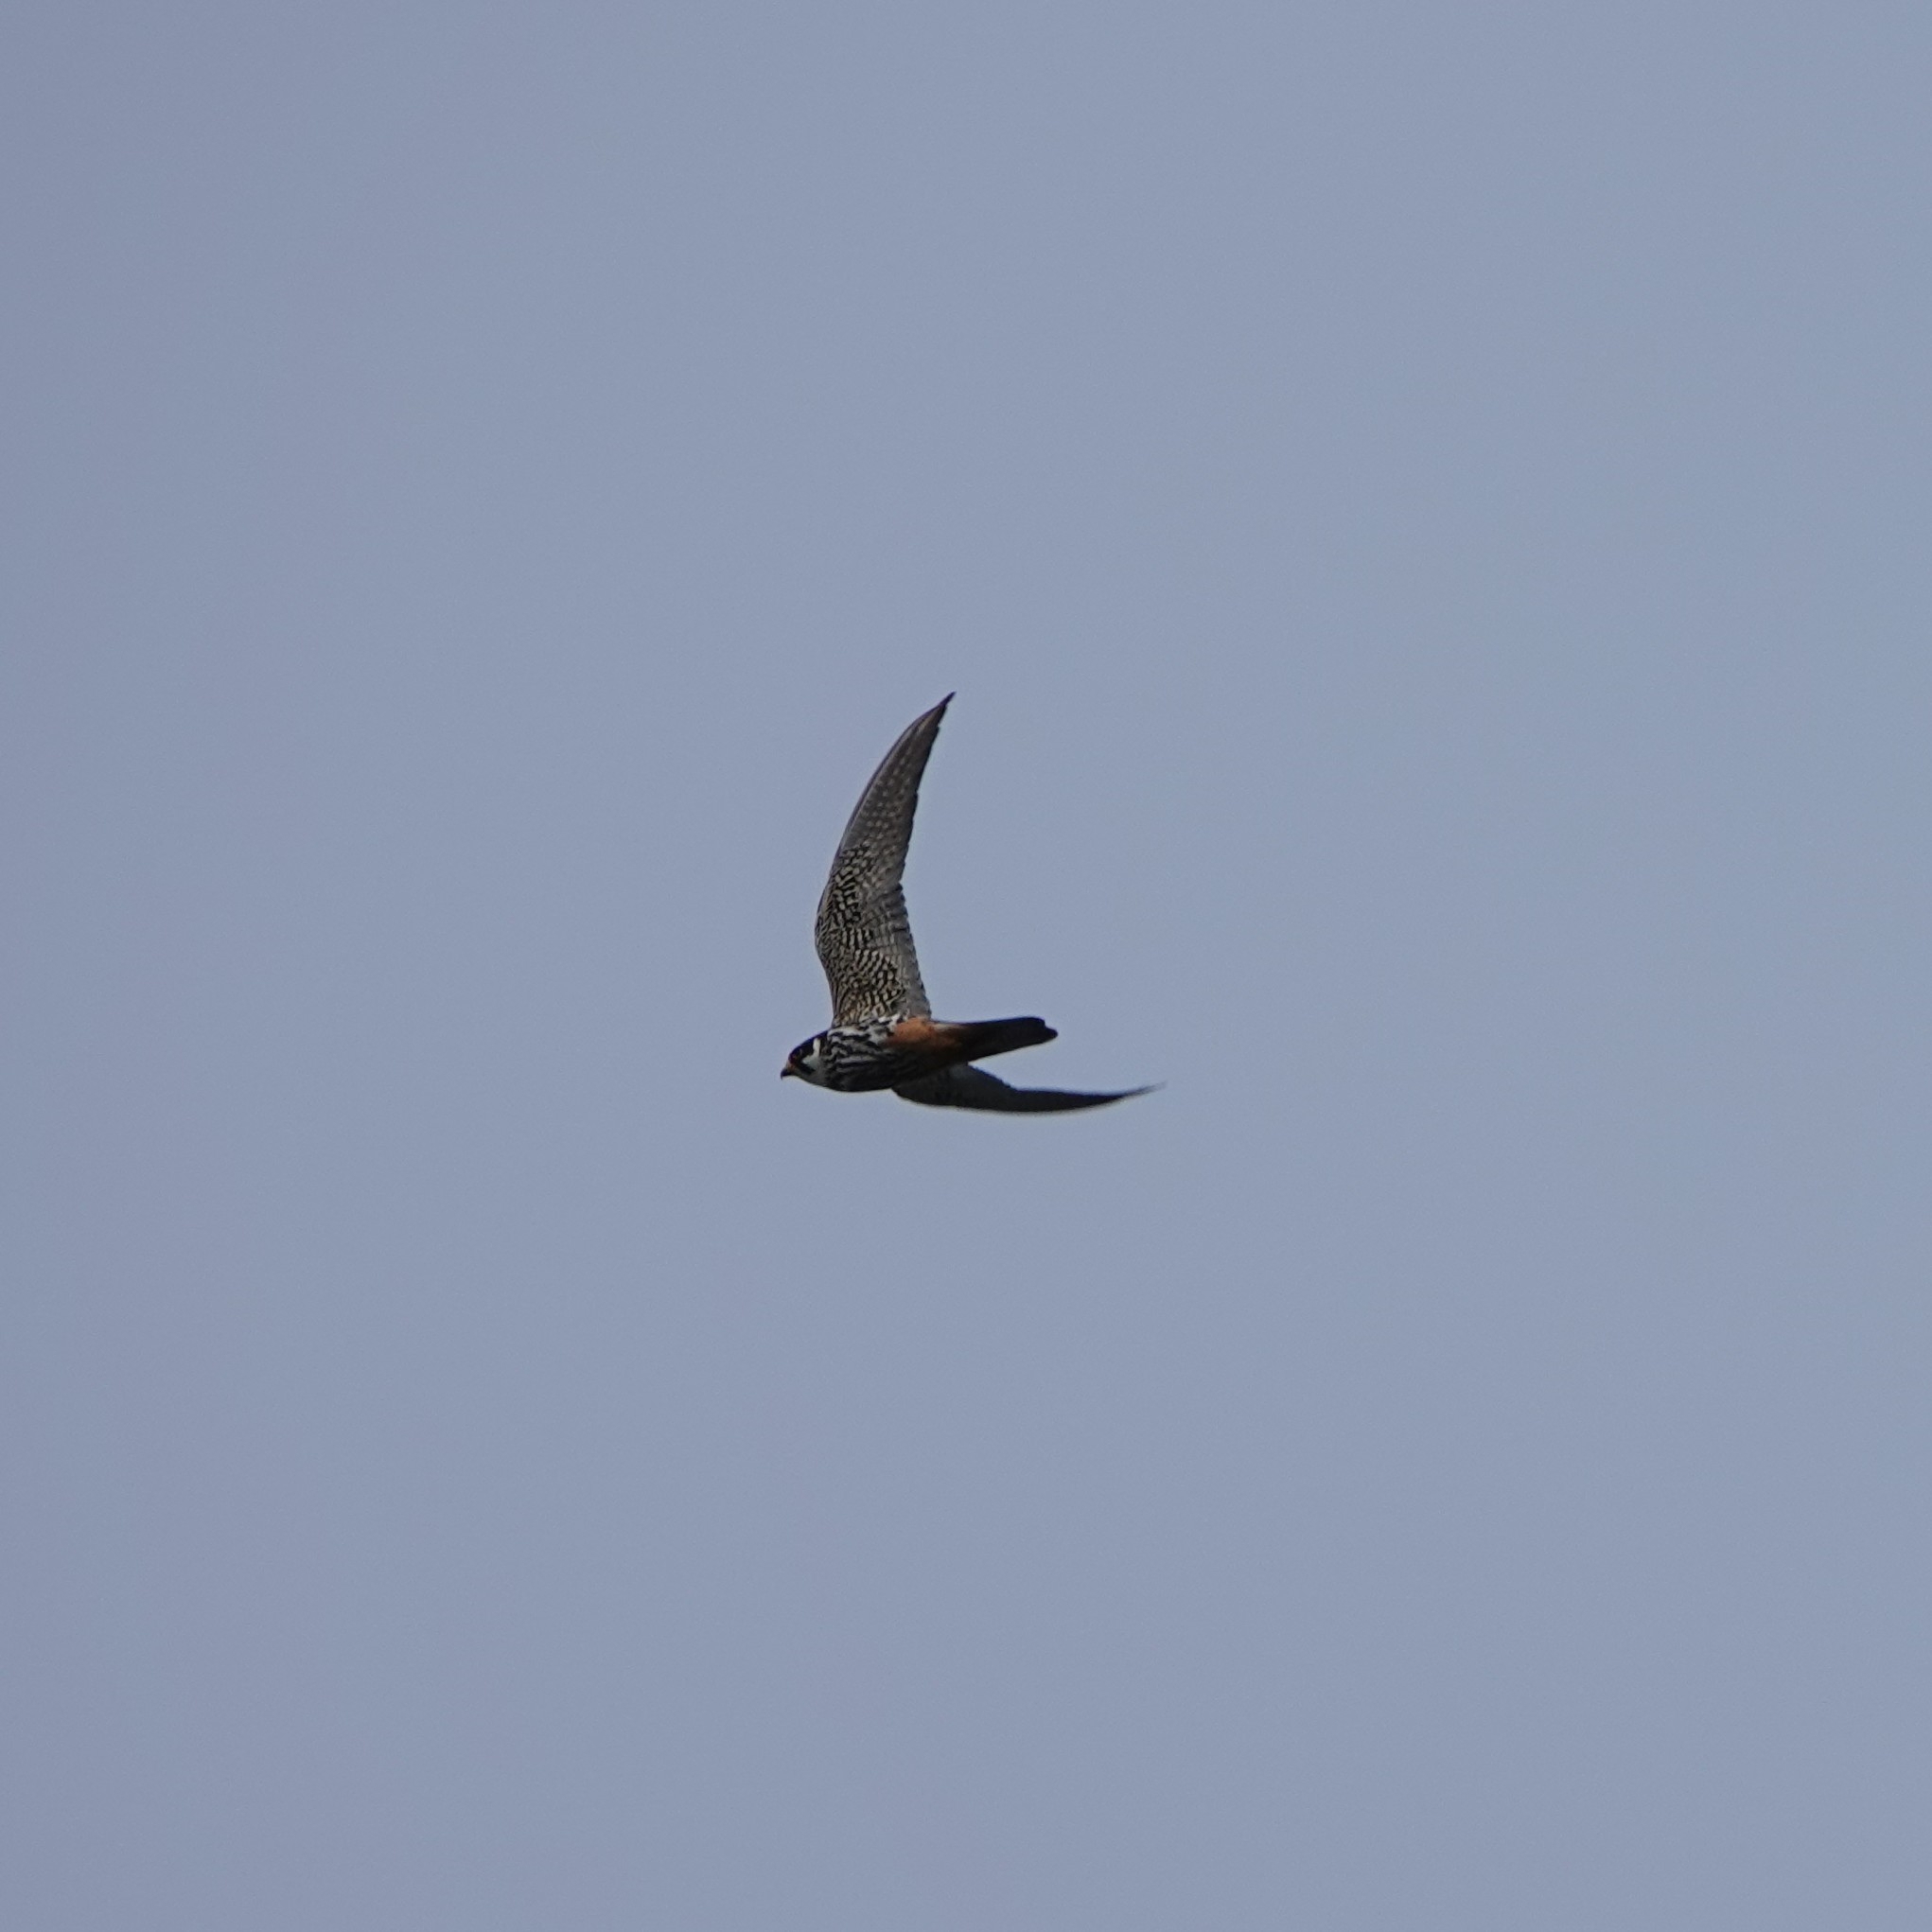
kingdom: Animalia
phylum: Chordata
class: Aves
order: Falconiformes
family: Falconidae
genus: Falco
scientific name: Falco subbuteo
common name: Eurasian hobby
